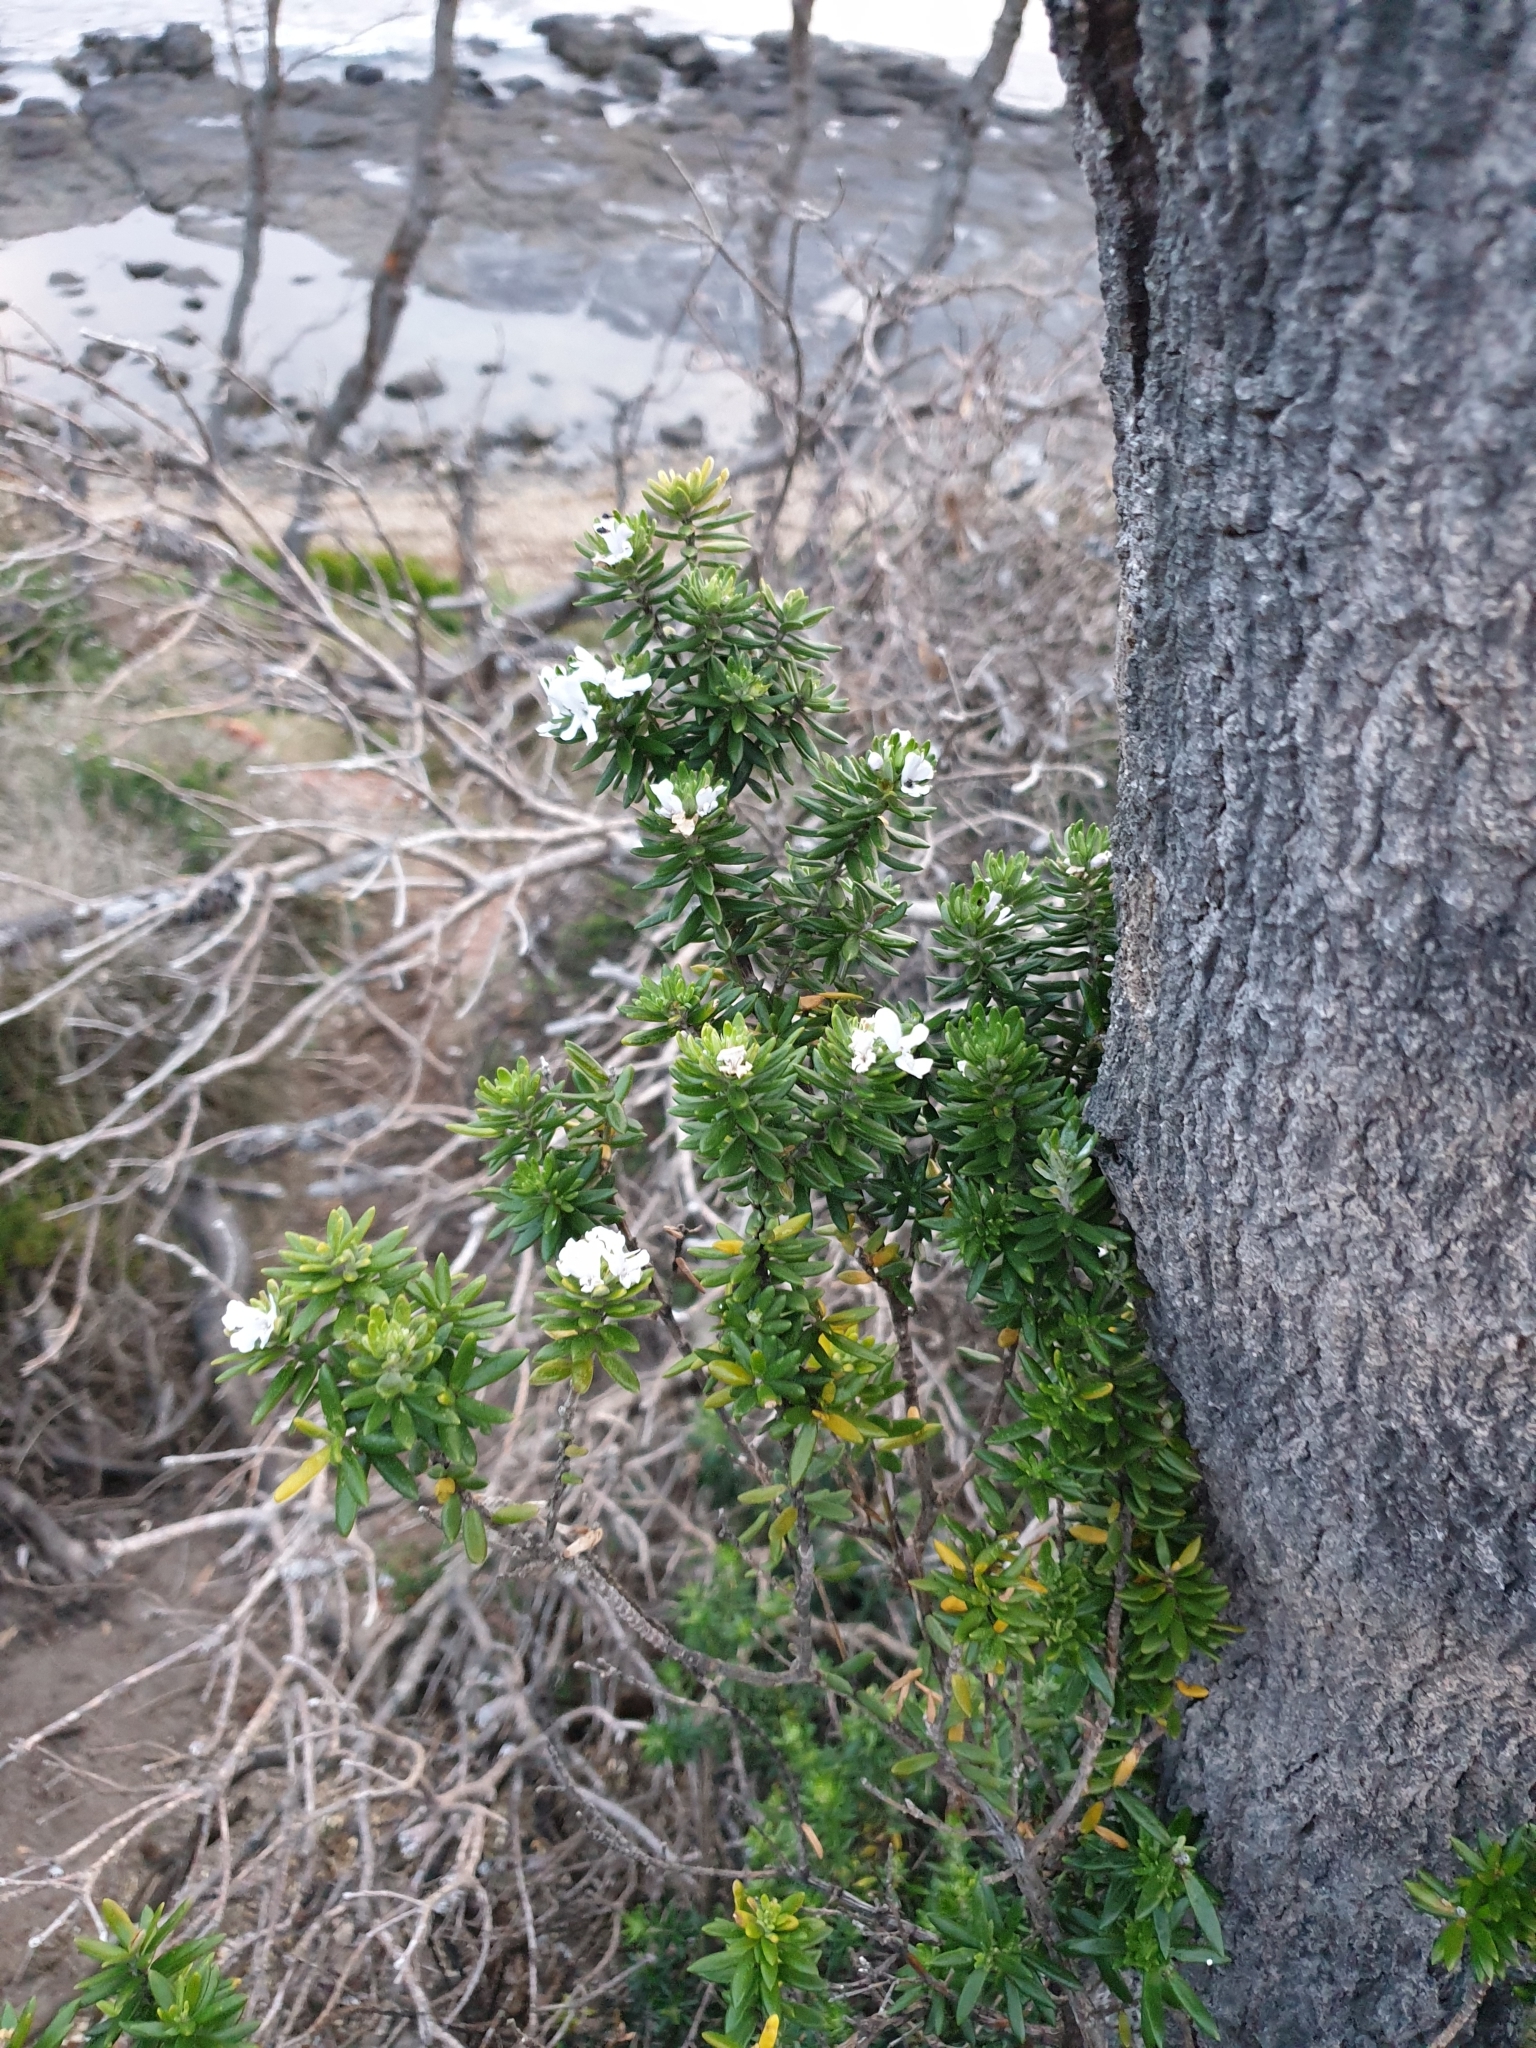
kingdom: Plantae
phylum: Tracheophyta
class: Magnoliopsida
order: Lamiales
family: Lamiaceae
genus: Westringia
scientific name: Westringia fruticosa
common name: Coastal-rosemary
